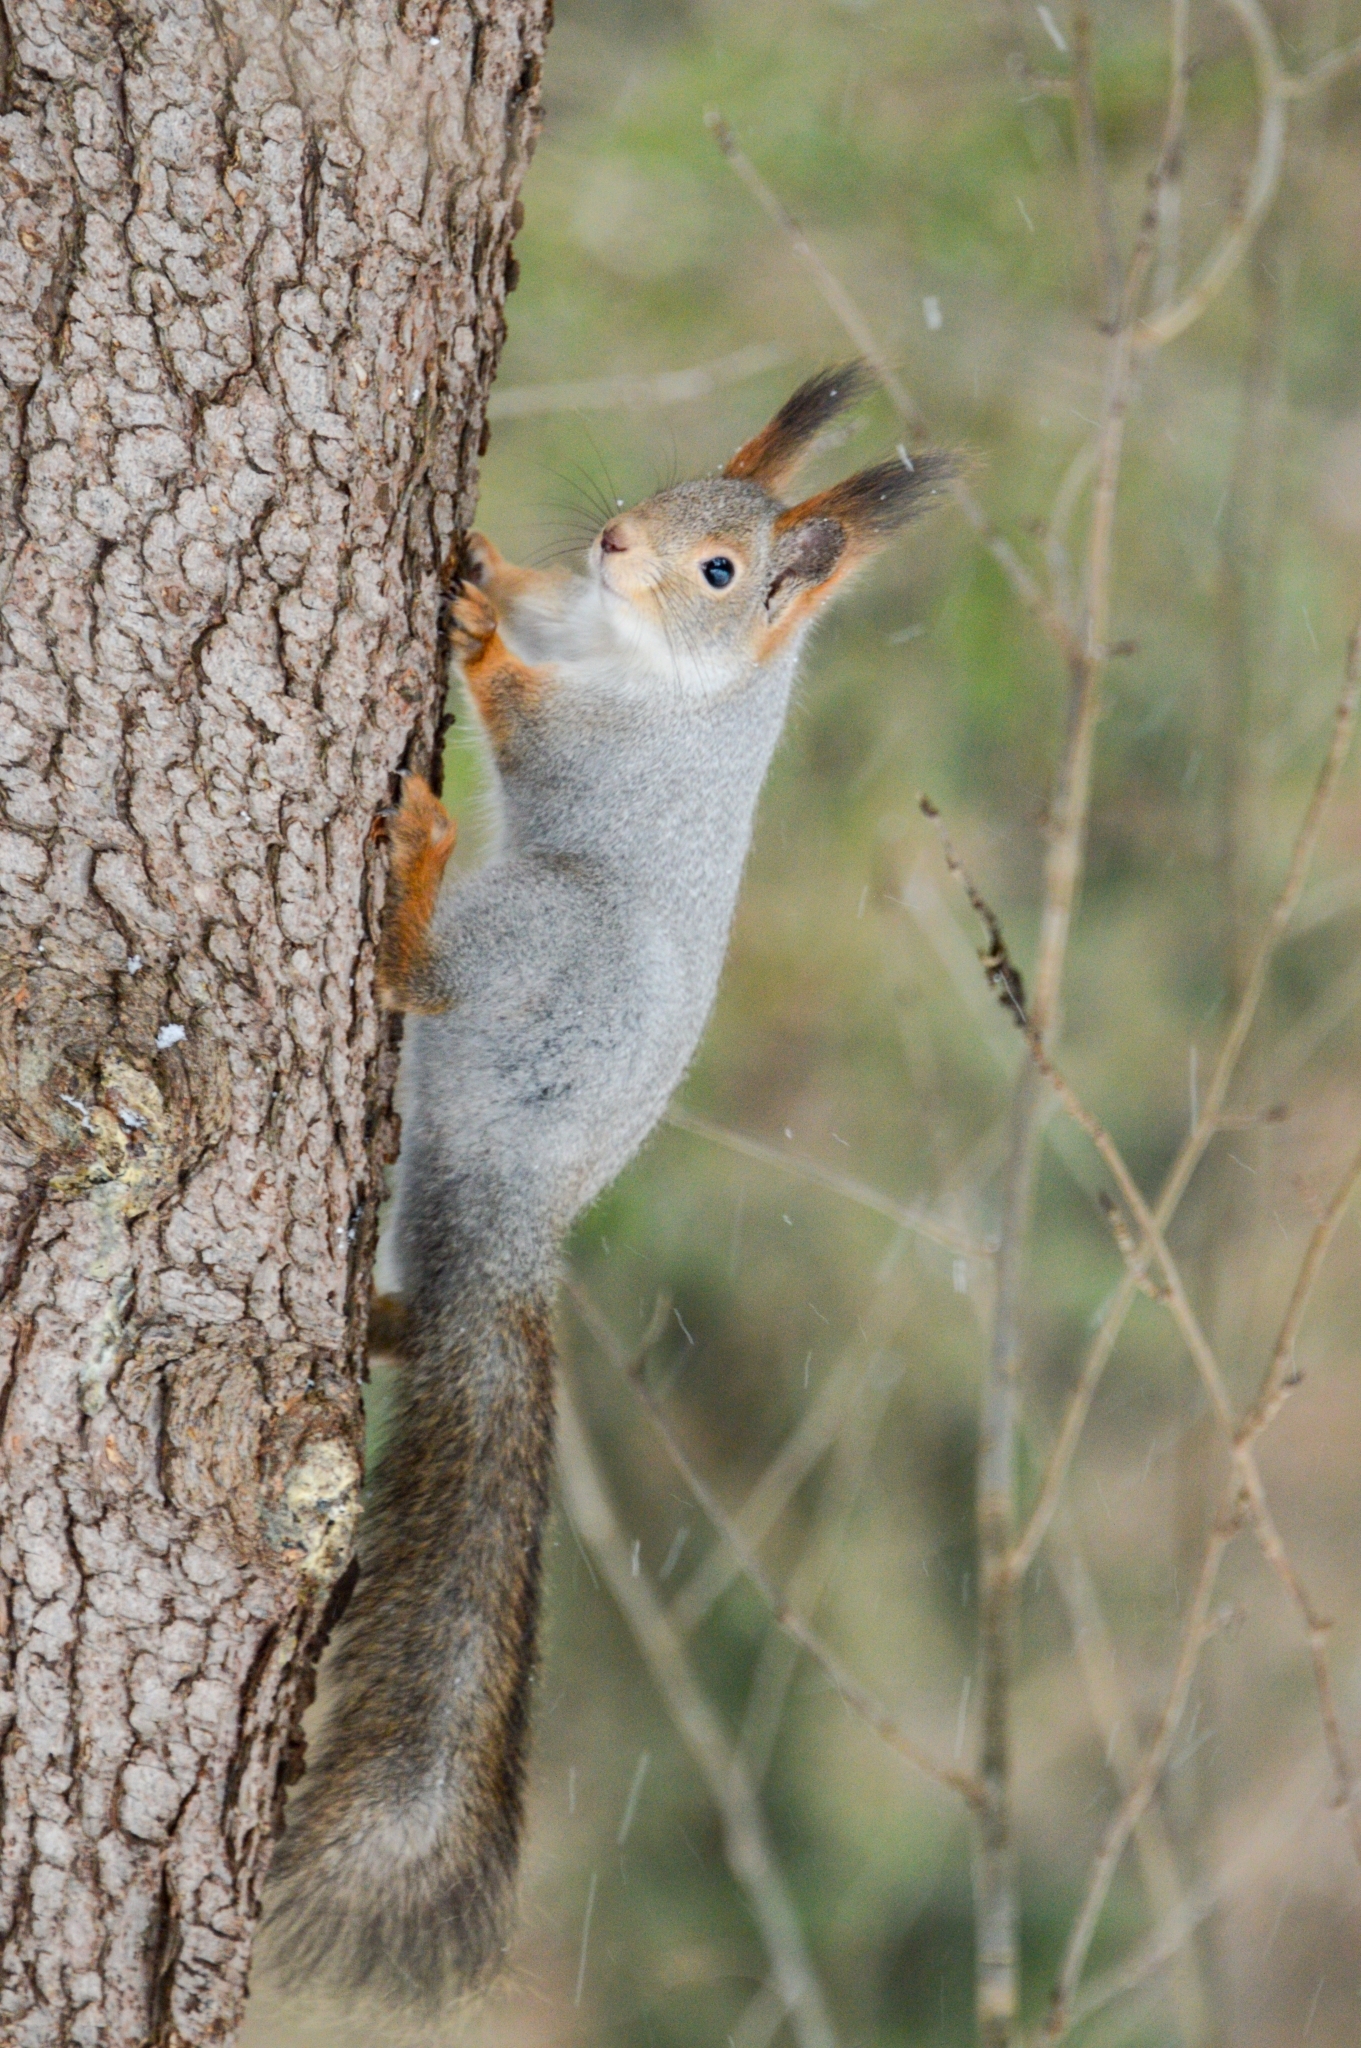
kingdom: Animalia
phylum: Chordata
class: Mammalia
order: Rodentia
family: Sciuridae
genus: Sciurus
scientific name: Sciurus vulgaris
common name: Eurasian red squirrel
